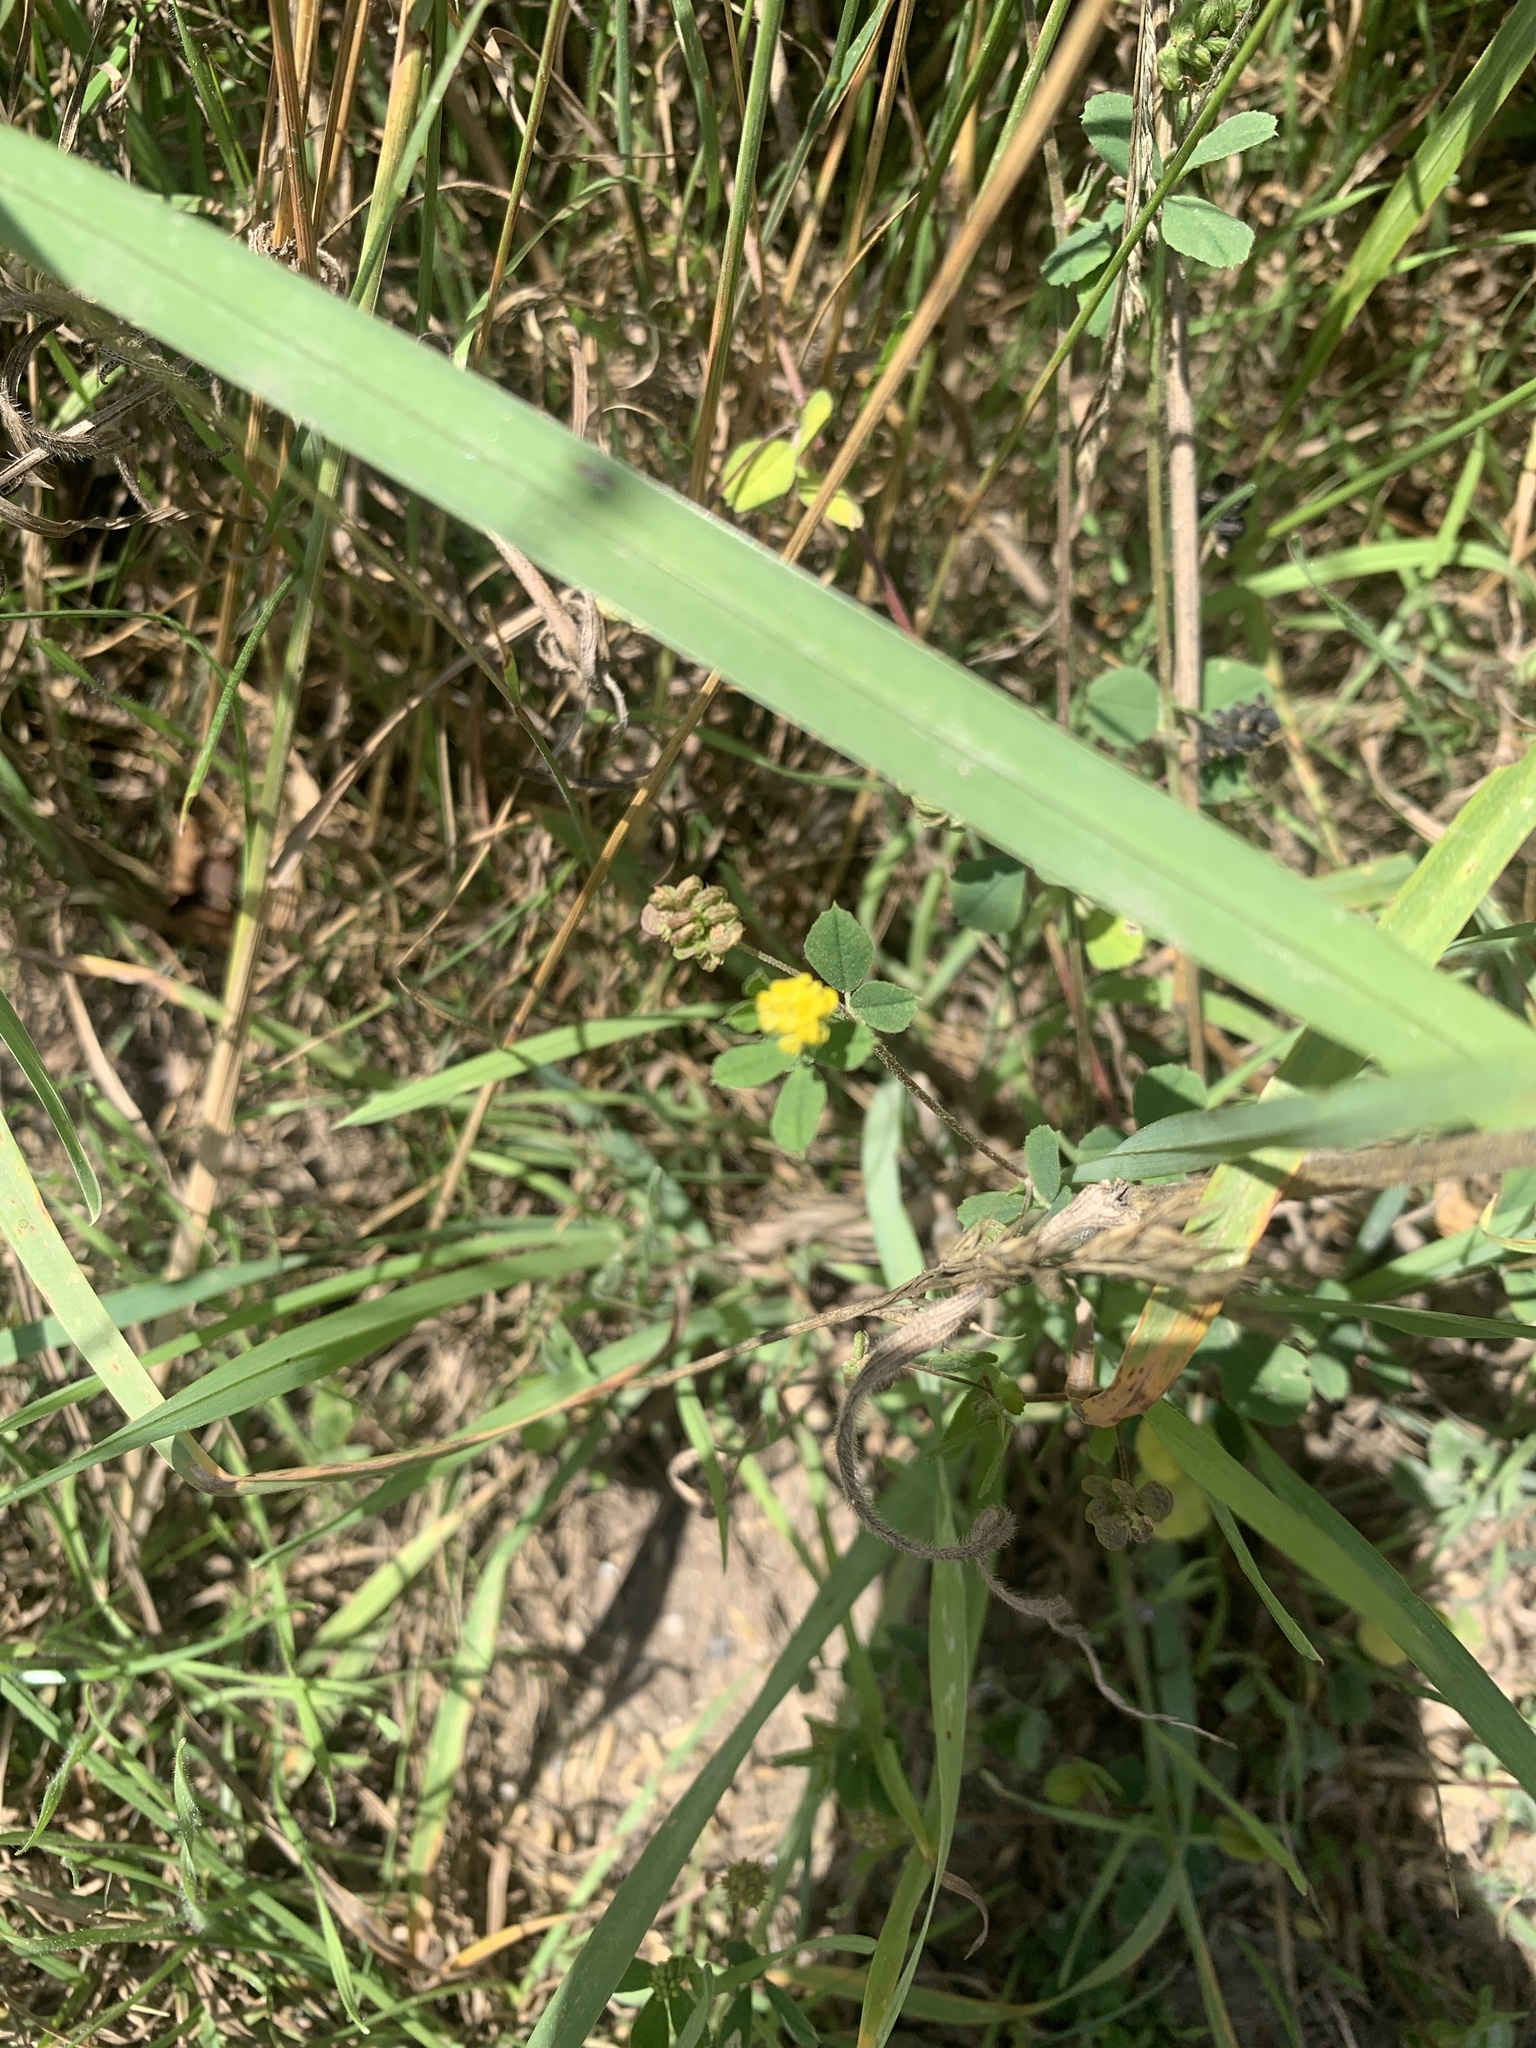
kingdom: Plantae
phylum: Tracheophyta
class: Magnoliopsida
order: Fabales
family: Fabaceae
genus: Medicago
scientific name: Medicago lupulina
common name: Black medick
